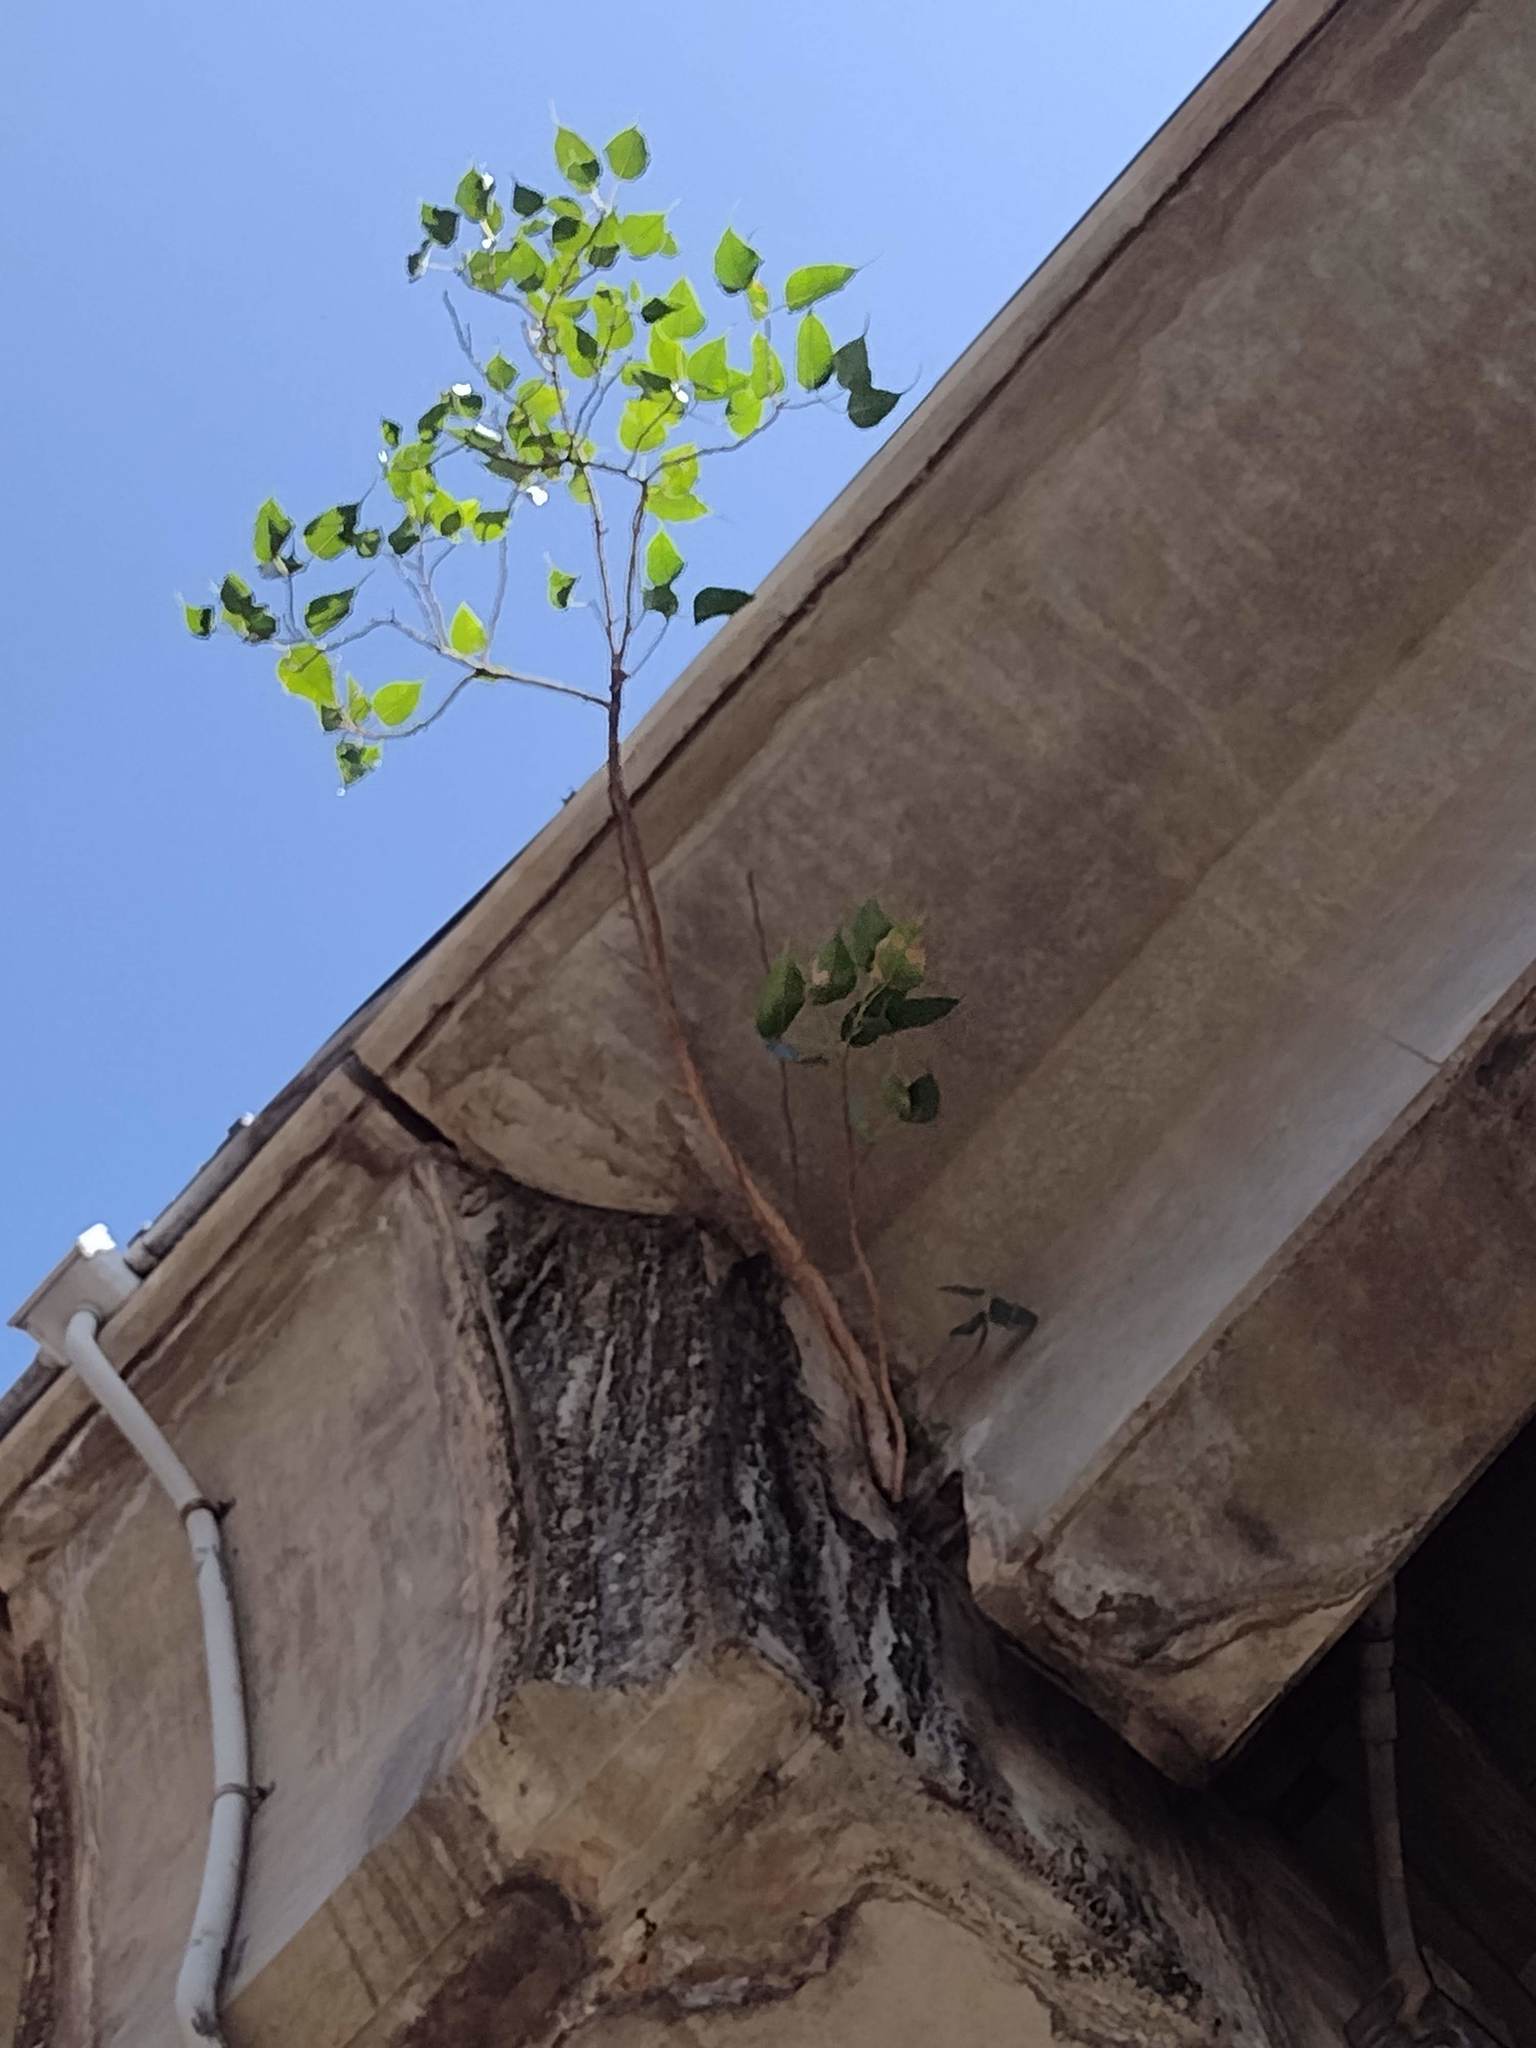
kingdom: Plantae
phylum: Tracheophyta
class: Magnoliopsida
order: Rosales
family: Moraceae
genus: Ficus
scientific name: Ficus religiosa
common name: Bodhi tree
